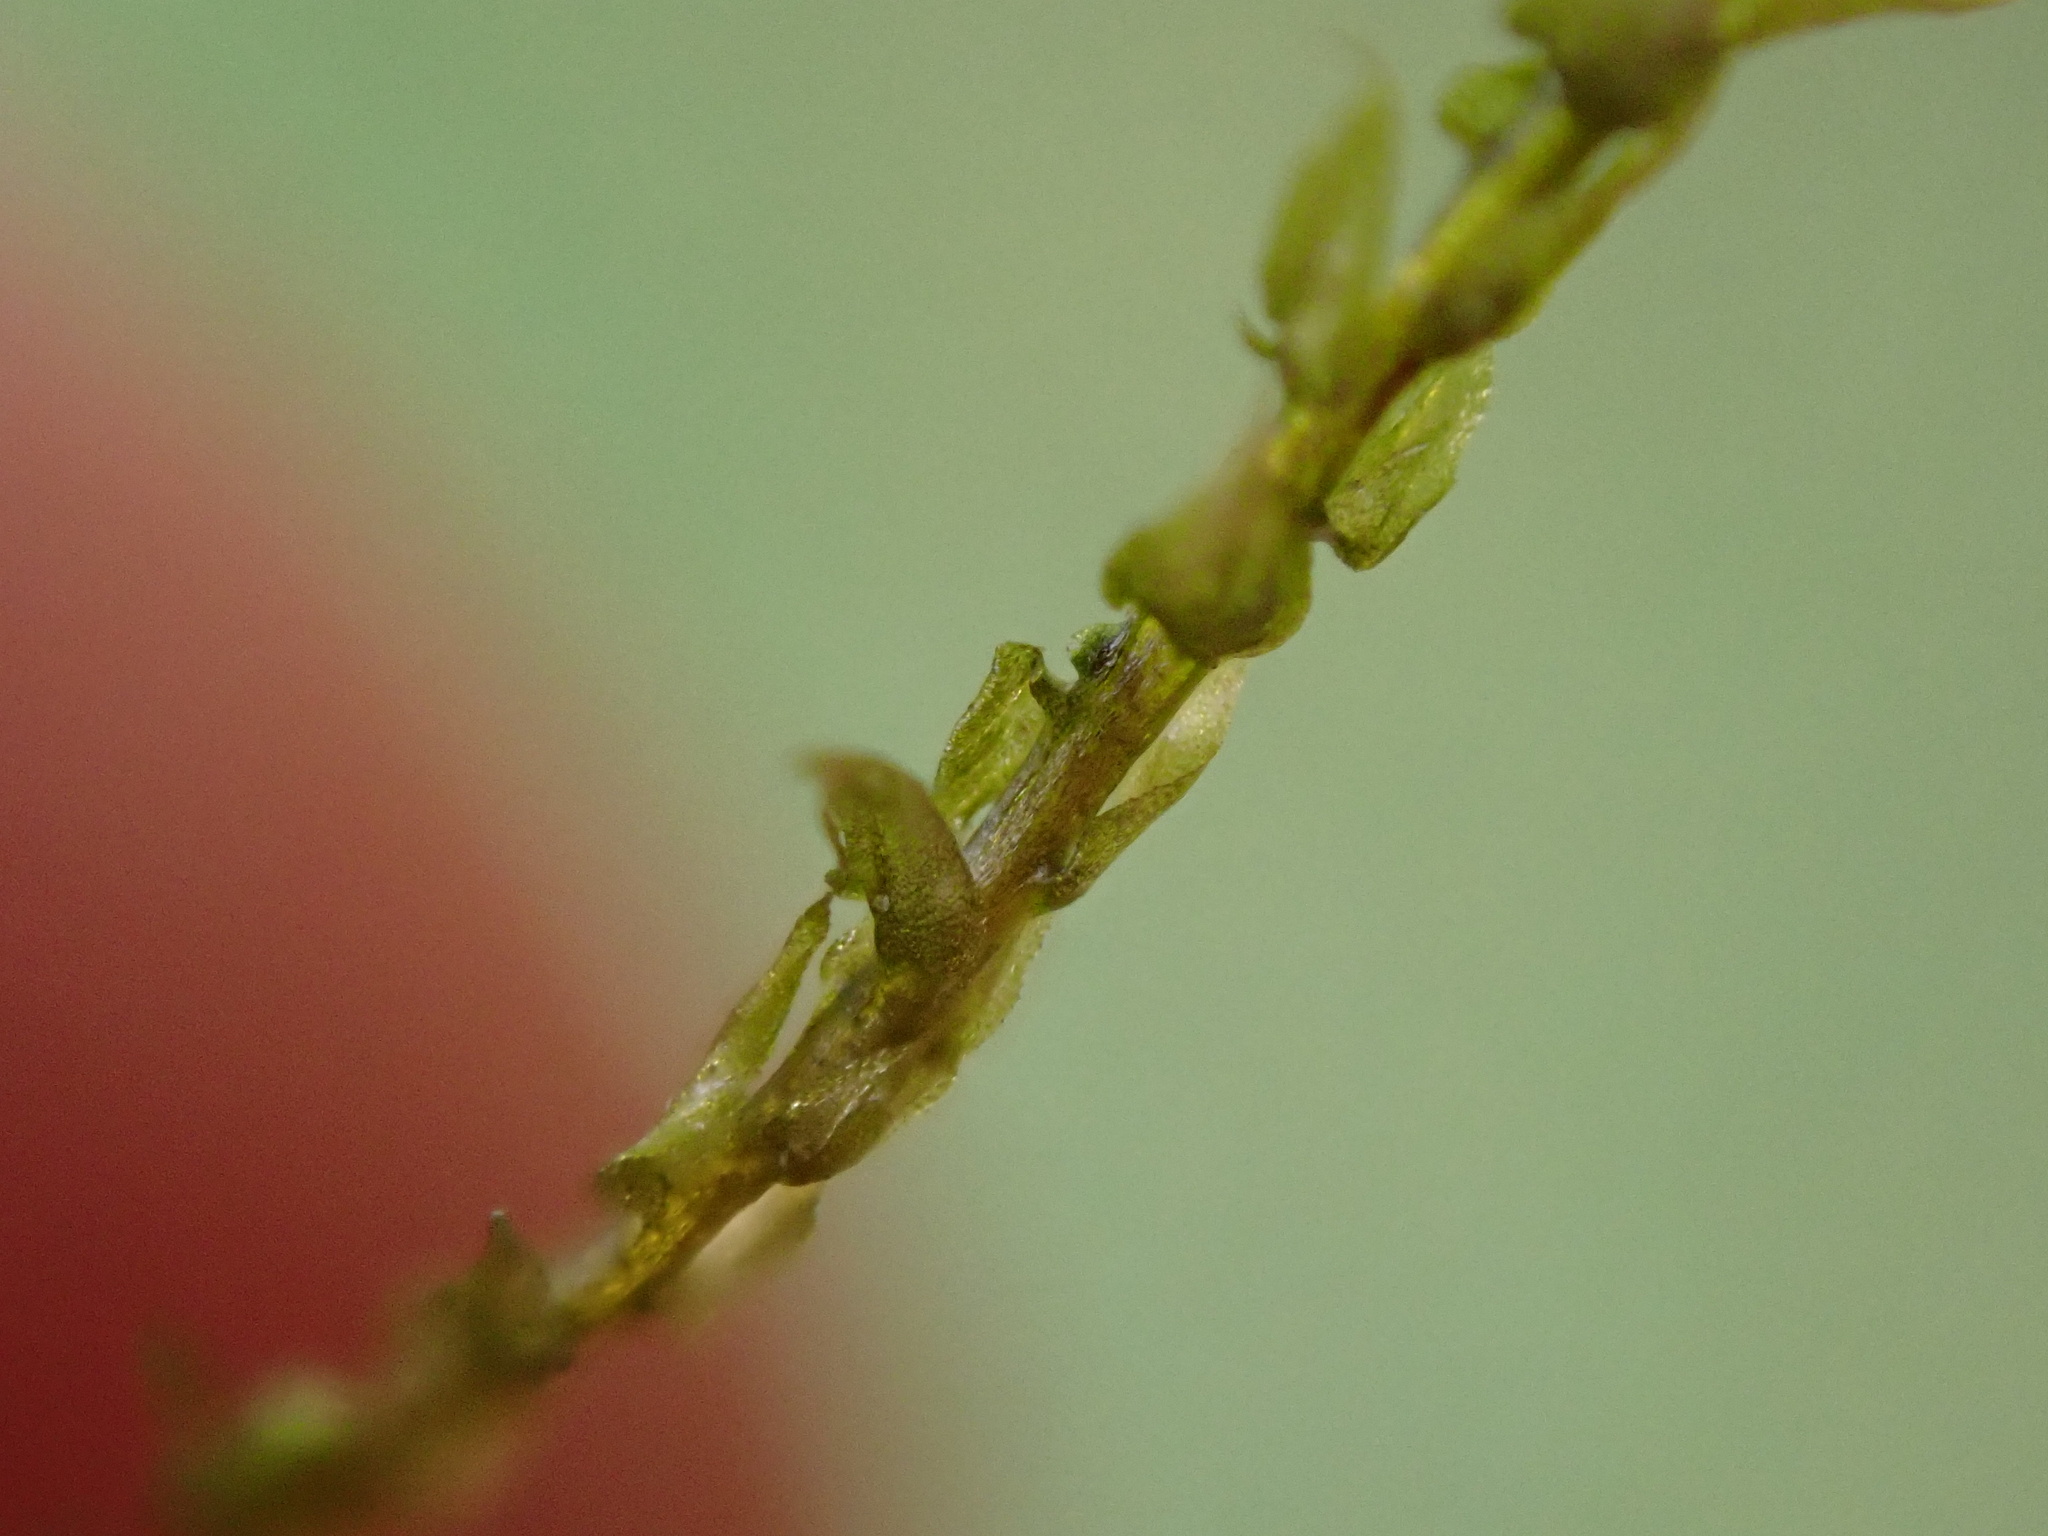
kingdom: Plantae
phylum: Bryophyta
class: Bryopsida
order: Hypnales
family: Brachytheciaceae
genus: Oxyrrhynchium
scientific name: Oxyrrhynchium hians
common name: Spreading beaked moss
